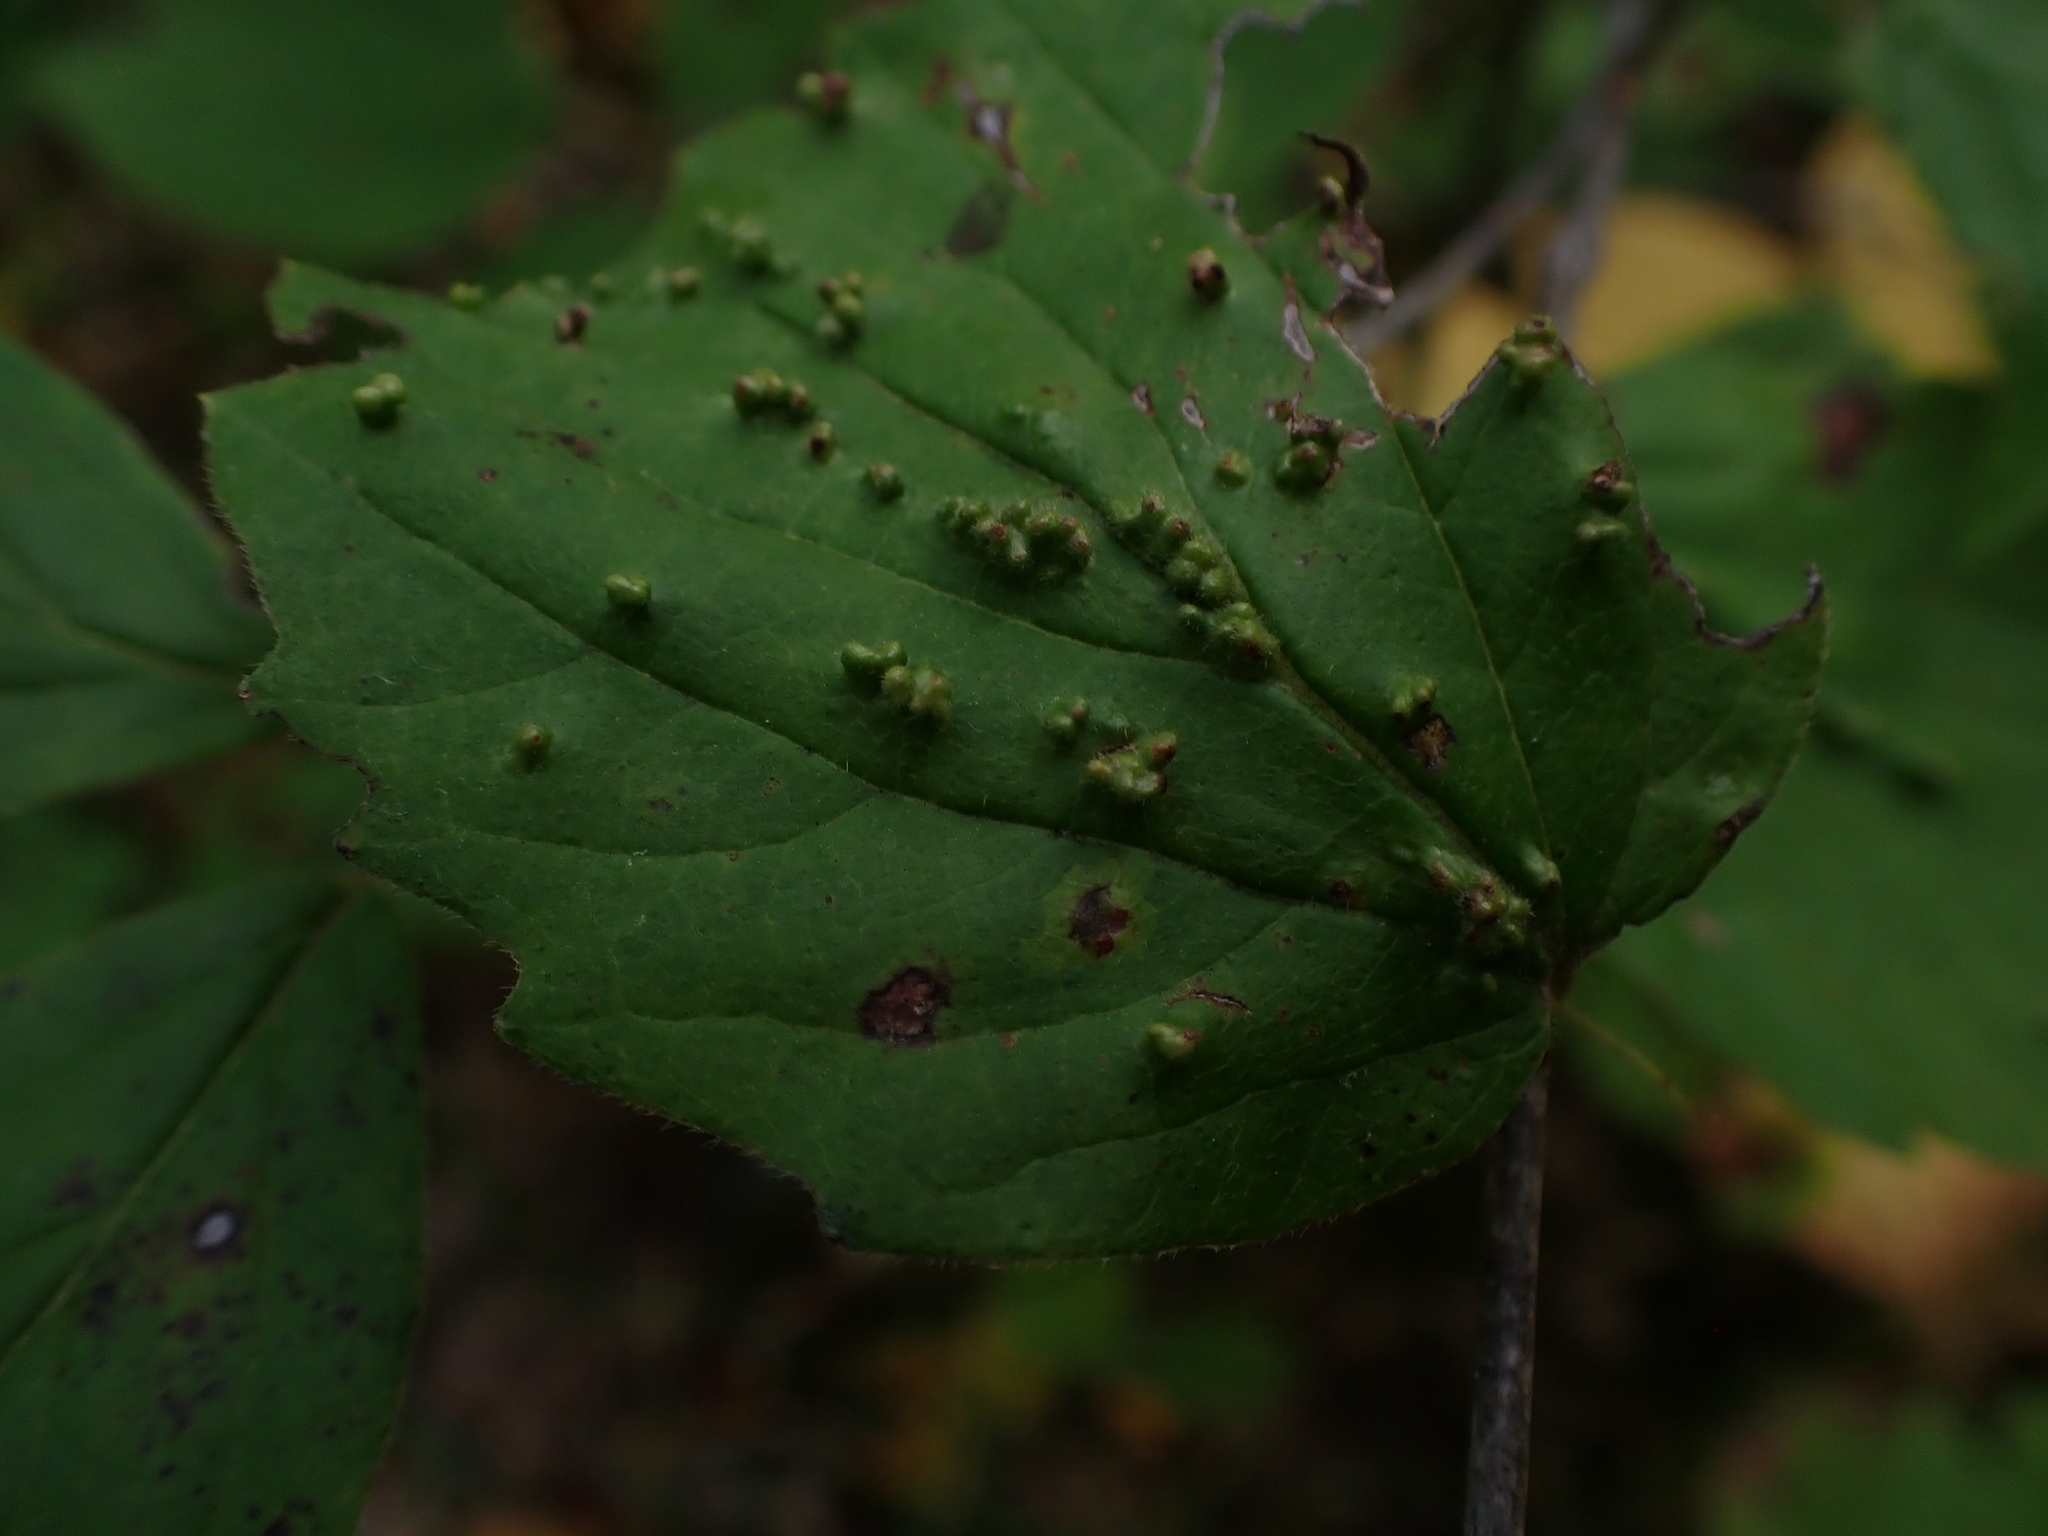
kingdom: Animalia
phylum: Arthropoda
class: Arachnida
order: Trombidiformes
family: Eriophyidae
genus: Eriophyes
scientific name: Eriophyes
